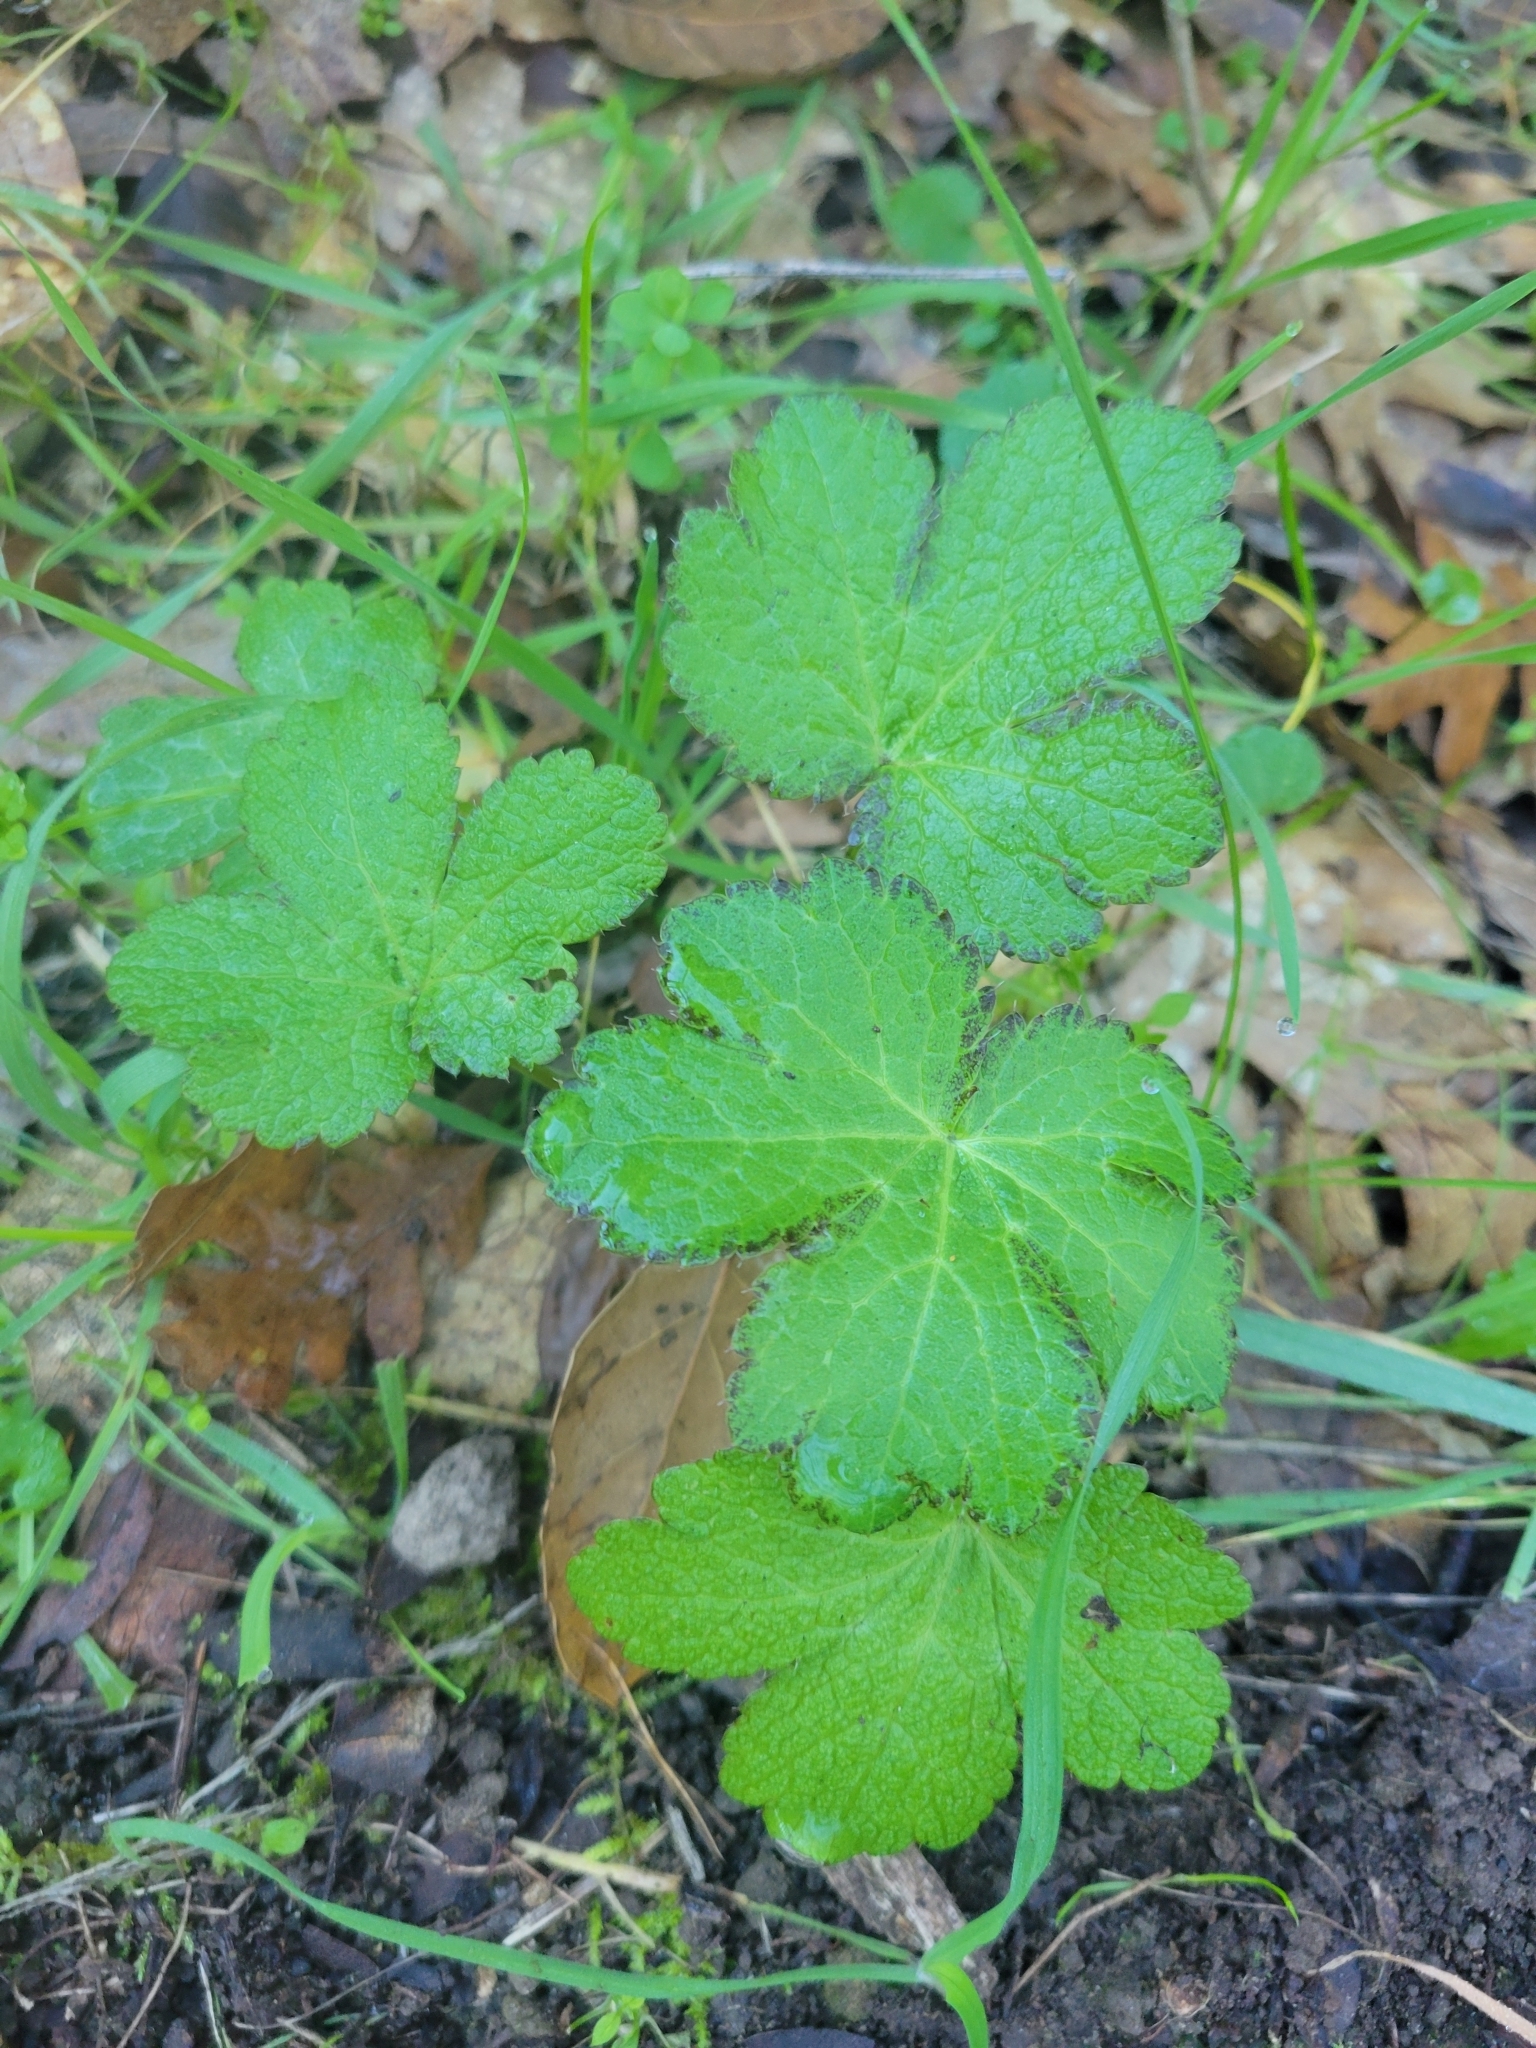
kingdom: Plantae
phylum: Tracheophyta
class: Magnoliopsida
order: Apiales
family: Apiaceae
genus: Sanicula
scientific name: Sanicula crassicaulis
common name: Western snakeroot
